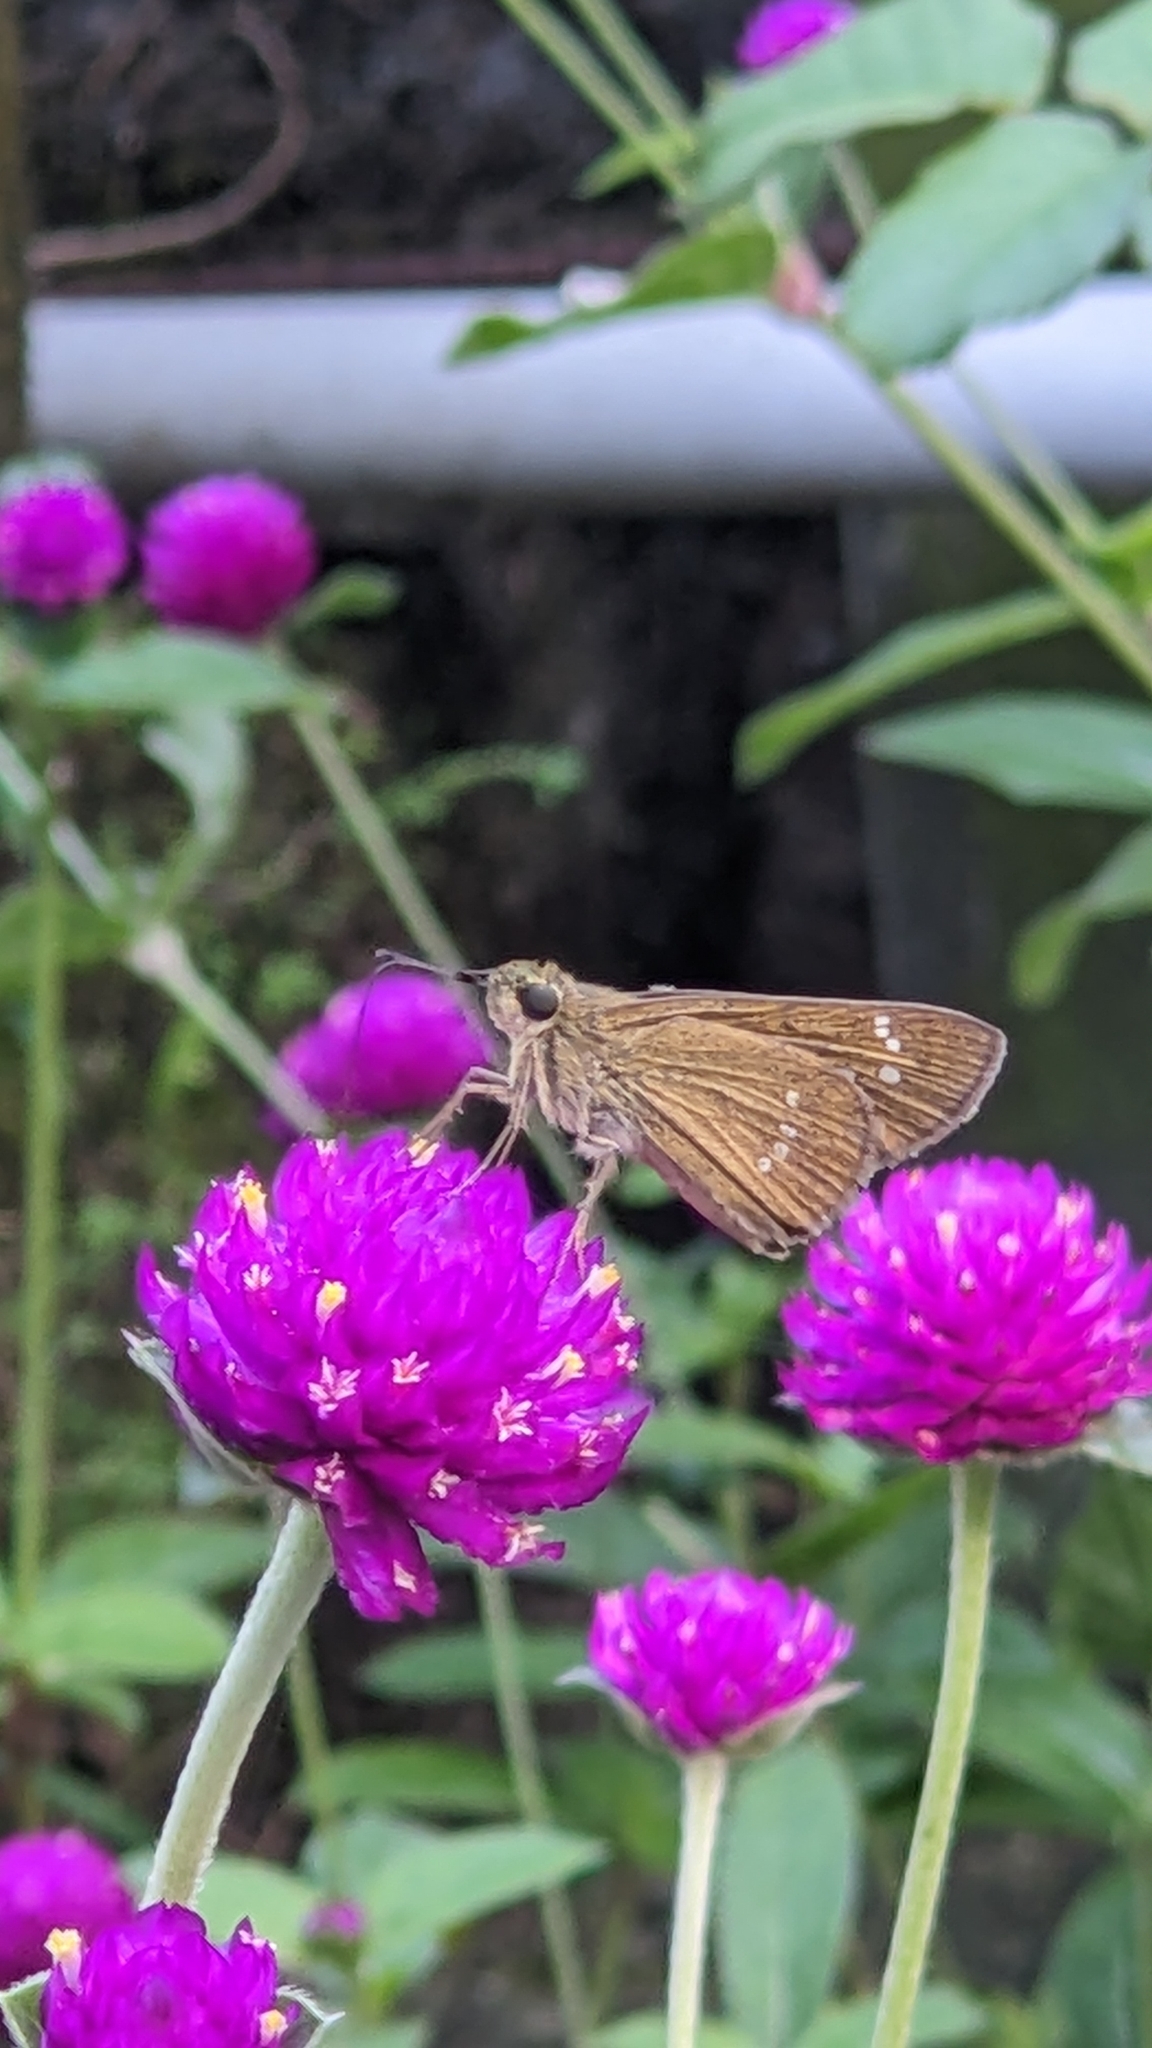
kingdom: Animalia
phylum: Arthropoda
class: Insecta
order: Lepidoptera
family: Hesperiidae
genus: Borbo
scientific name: Borbo cinnara
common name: Formosan swift
